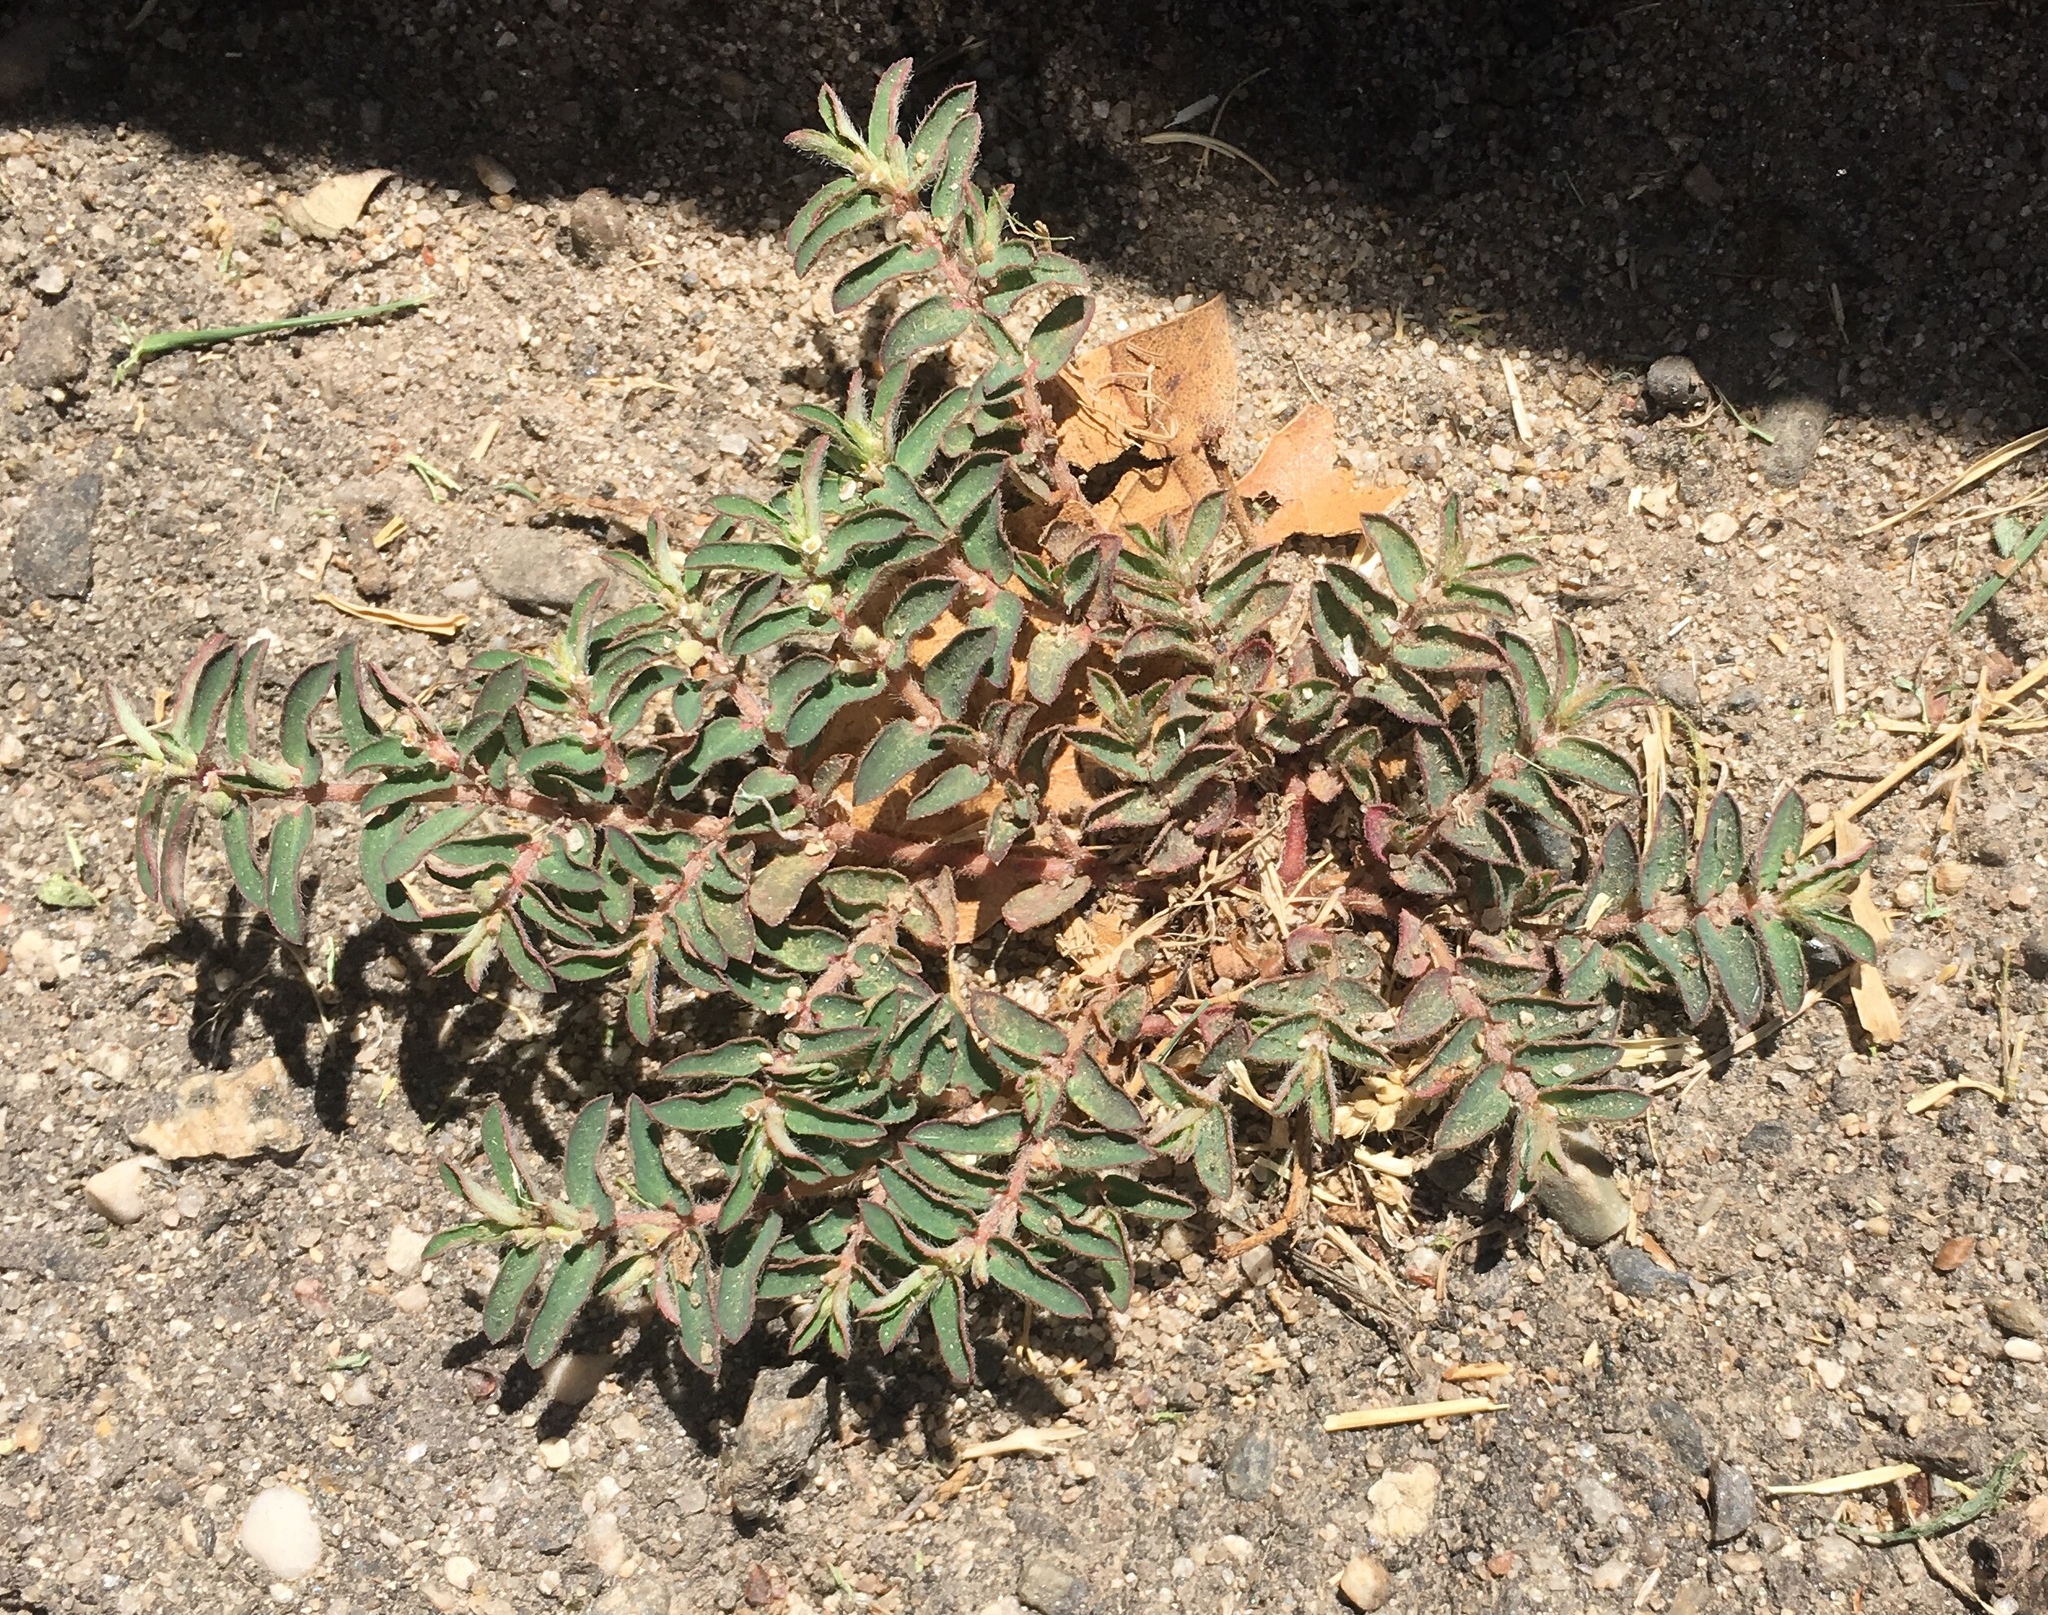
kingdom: Plantae
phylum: Tracheophyta
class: Magnoliopsida
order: Malpighiales
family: Euphorbiaceae
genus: Euphorbia
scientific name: Euphorbia maculata
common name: Spotted spurge
